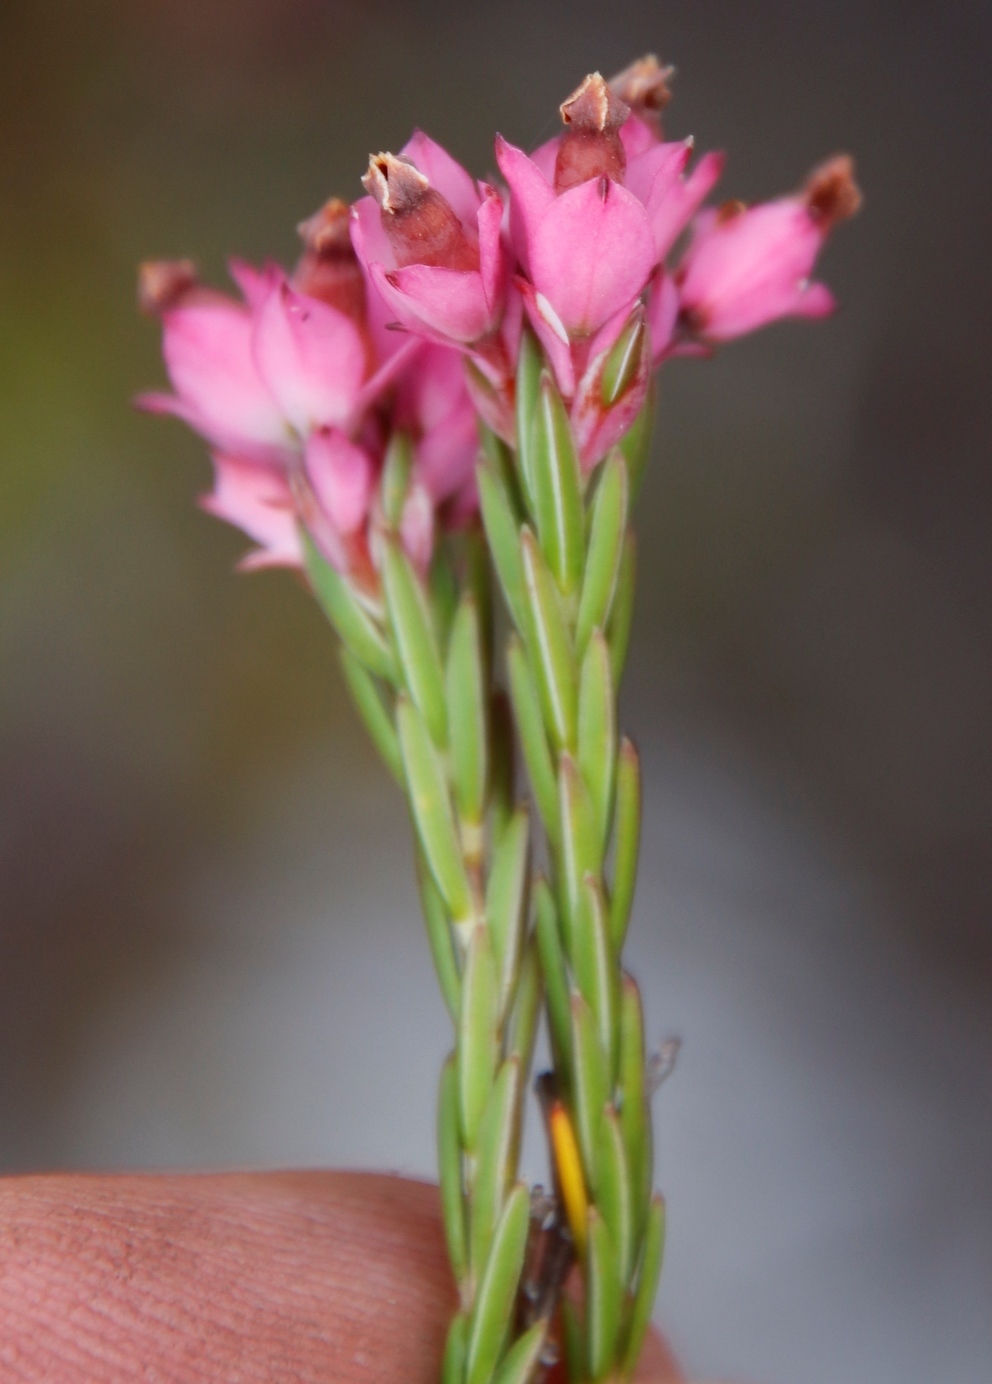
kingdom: Plantae
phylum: Tracheophyta
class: Magnoliopsida
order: Ericales
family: Ericaceae
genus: Erica
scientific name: Erica corifolia
